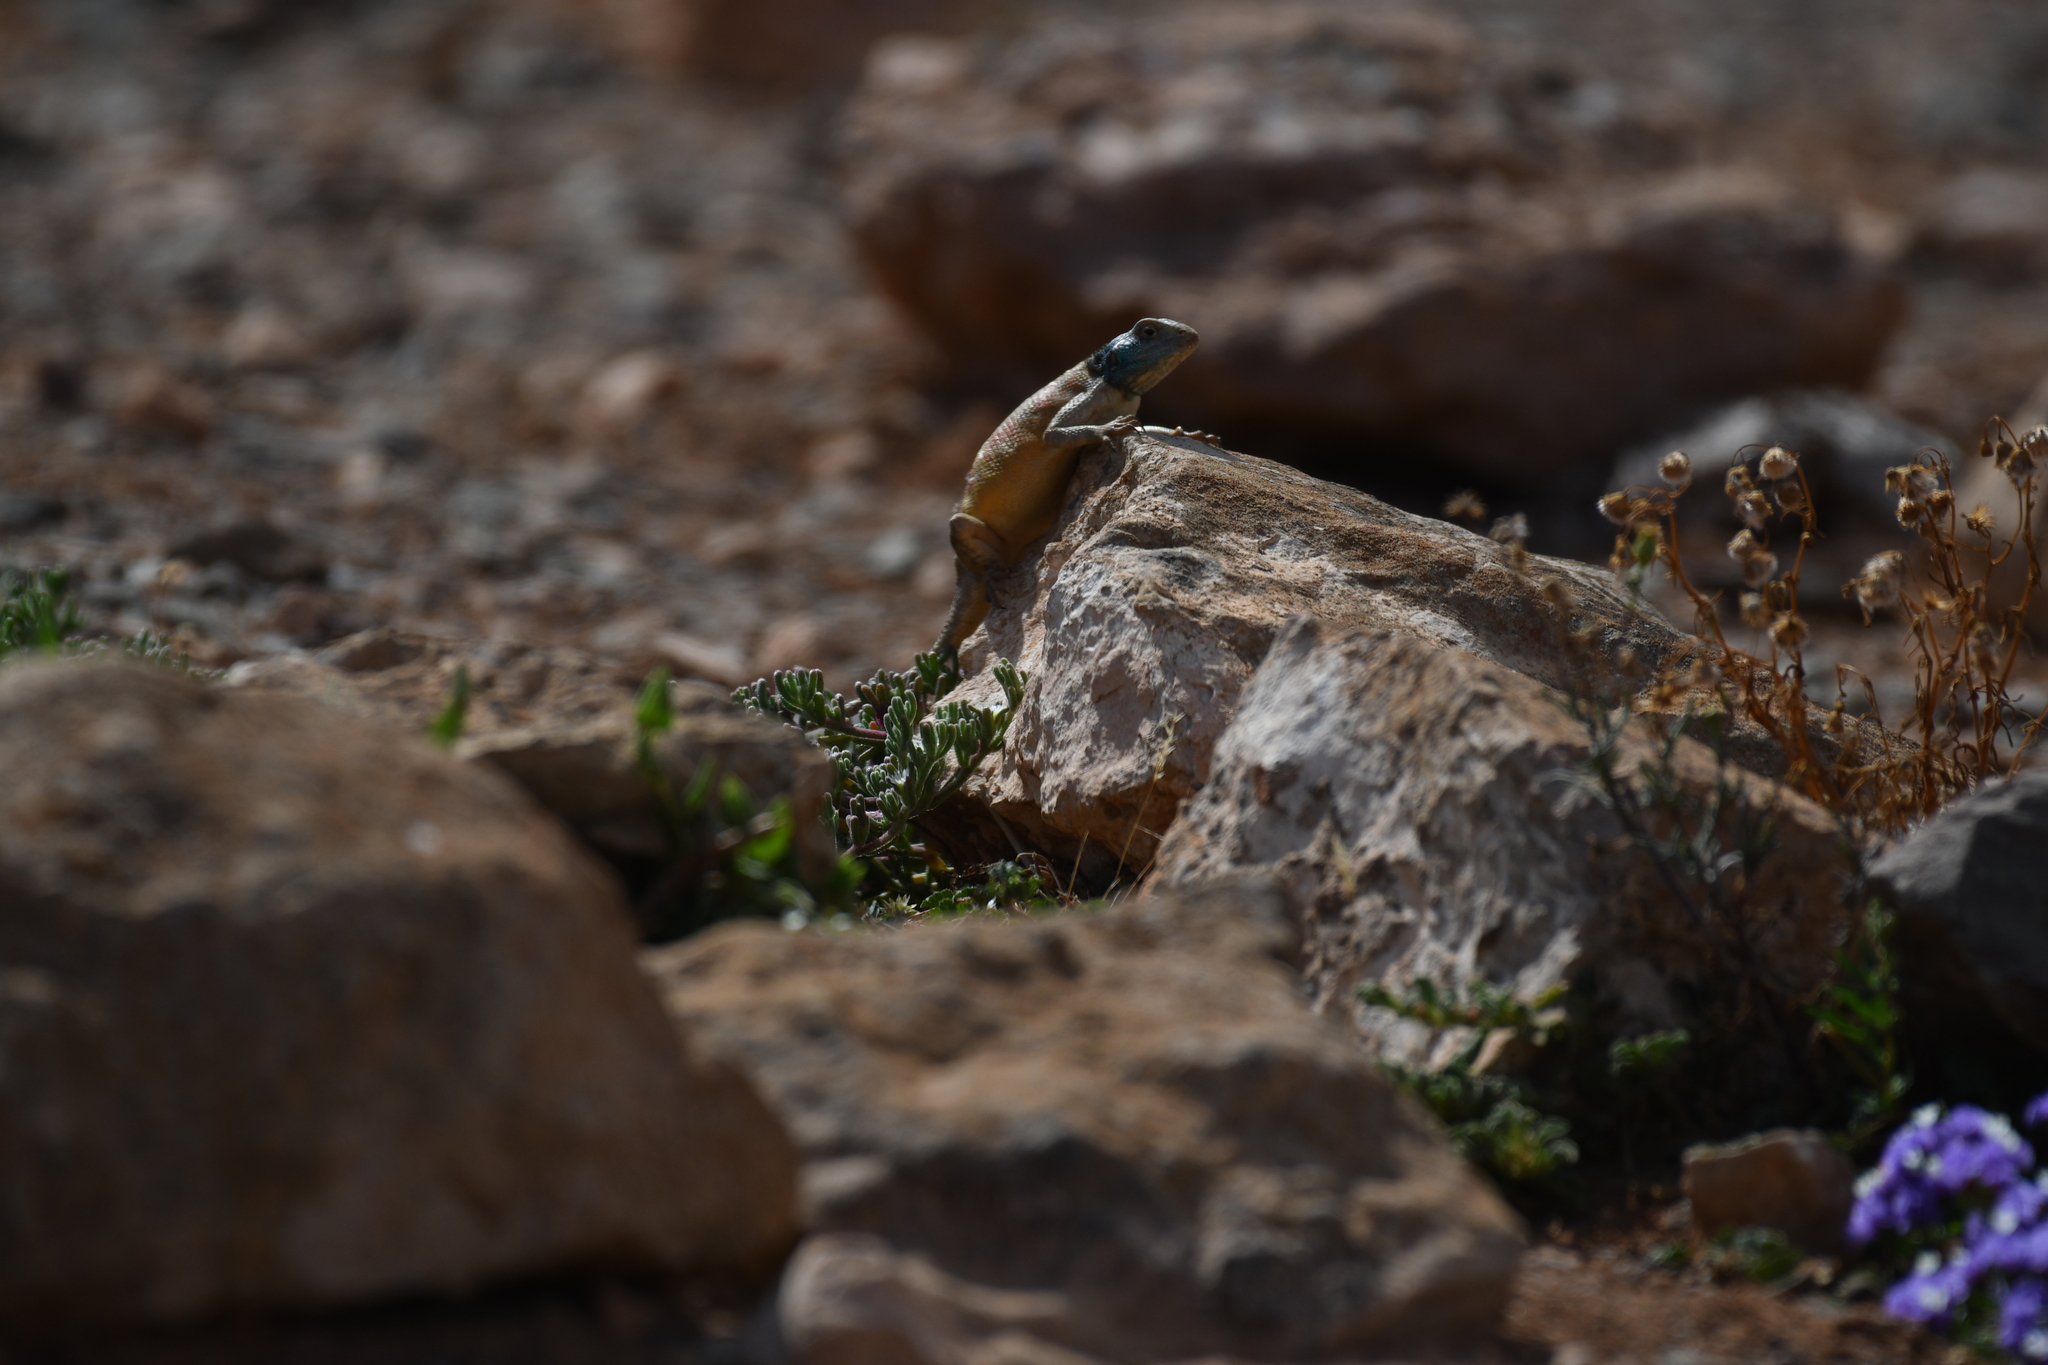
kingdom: Animalia
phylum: Chordata
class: Squamata
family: Agamidae
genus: Agama
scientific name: Agama impalearis
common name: Bibron's agama
